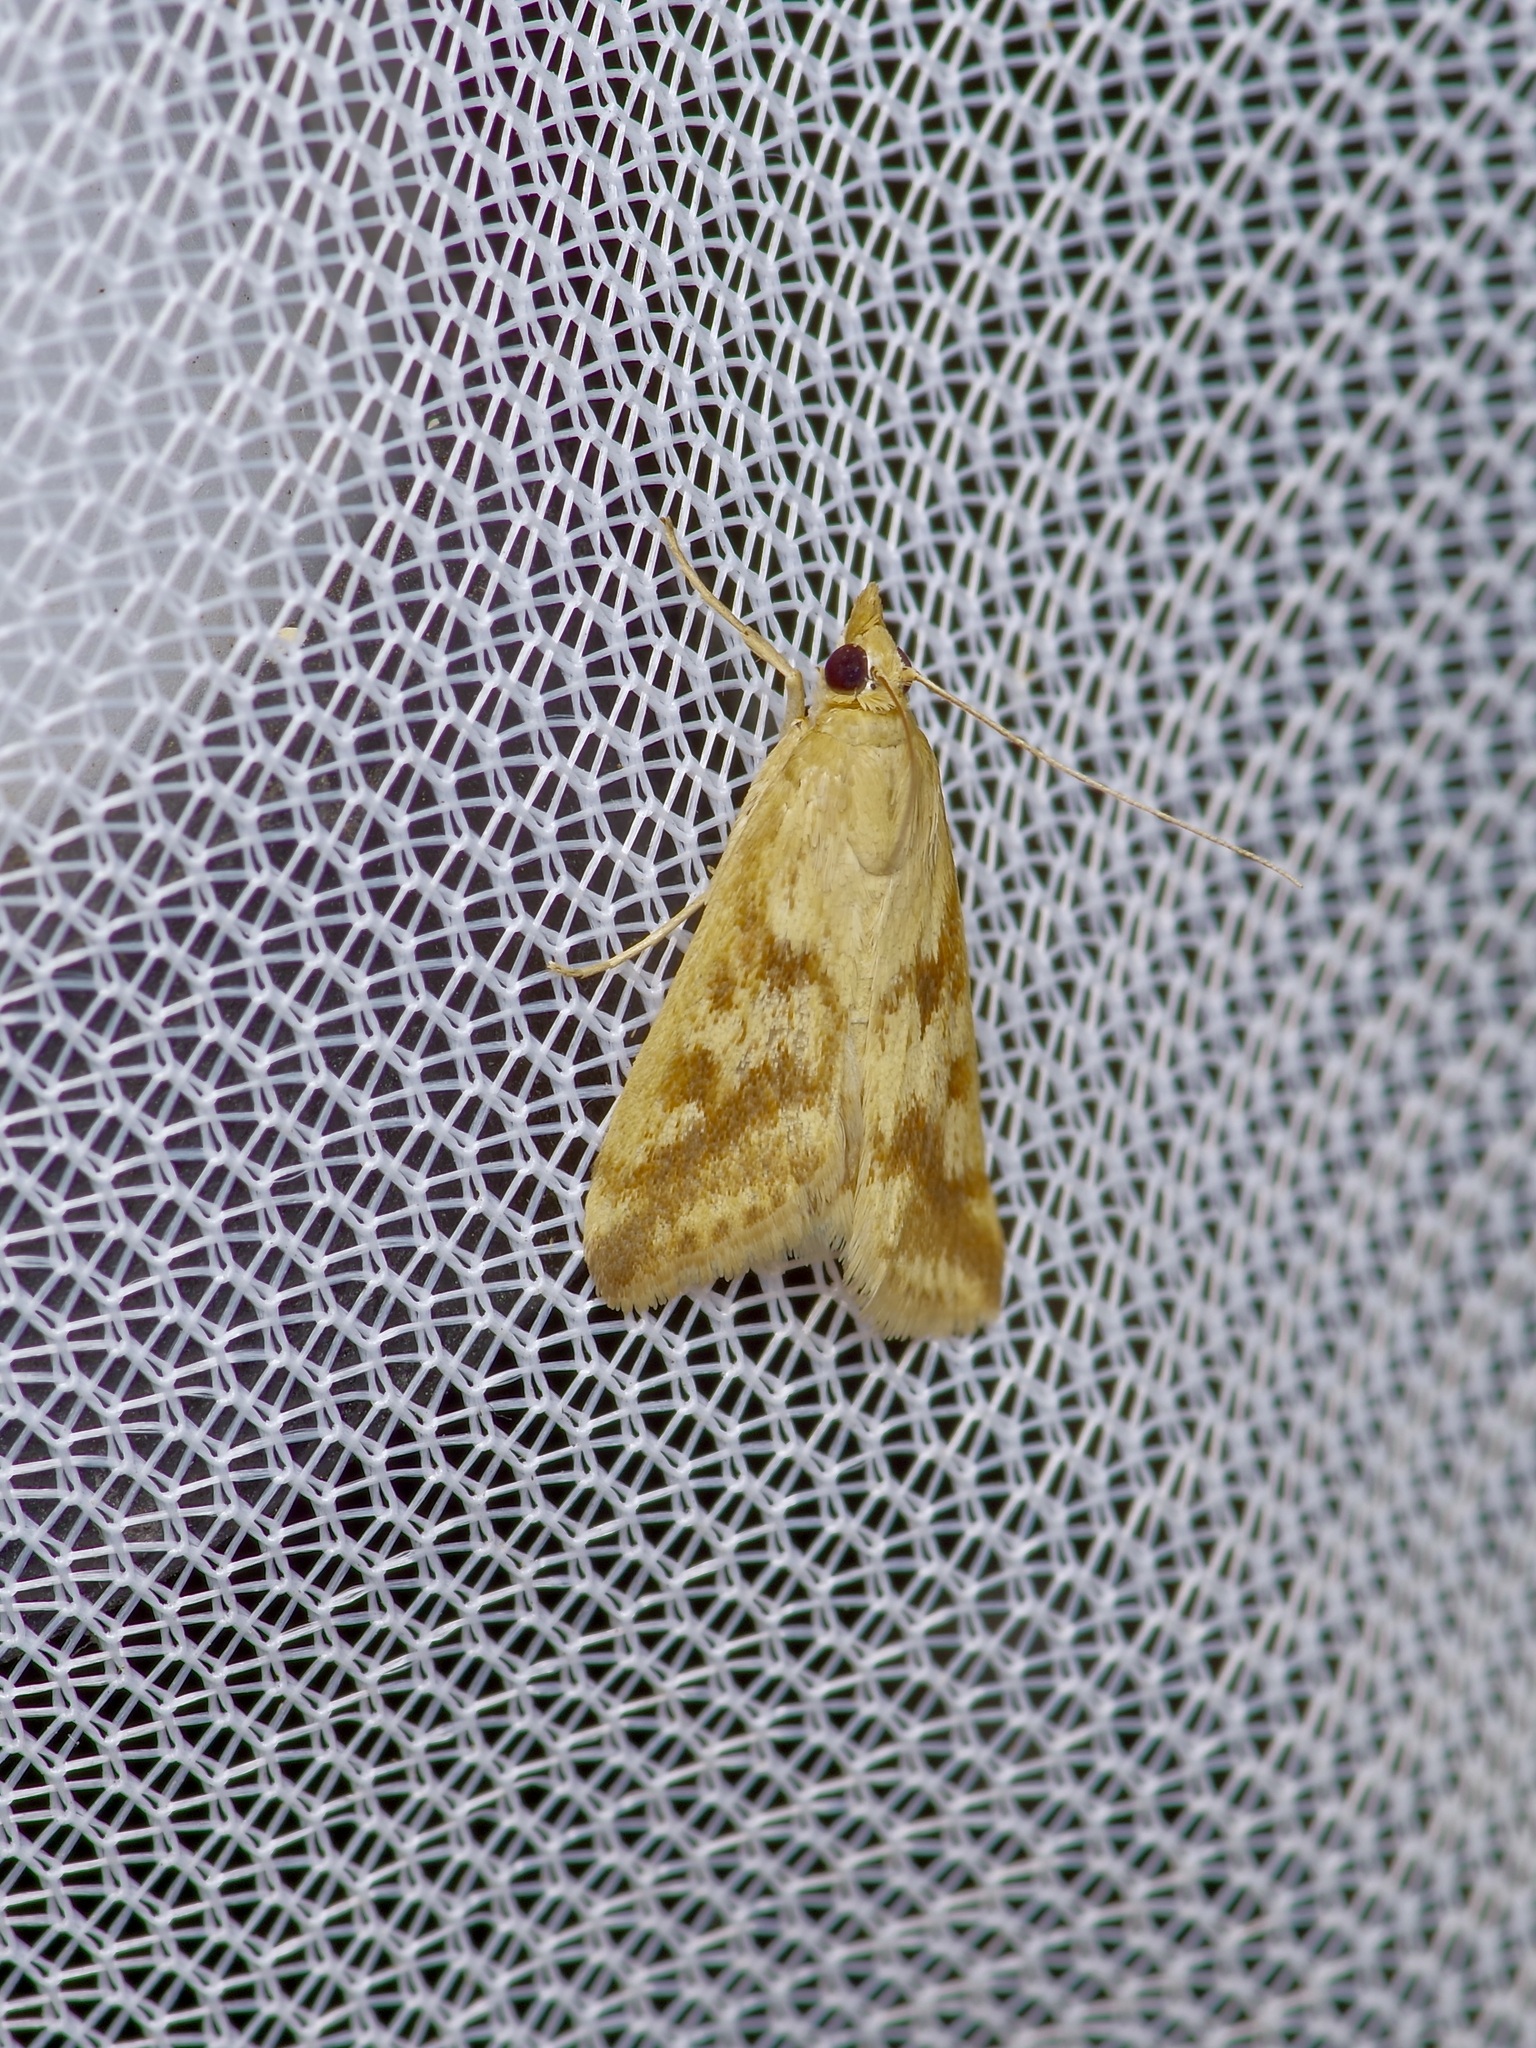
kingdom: Animalia
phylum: Arthropoda
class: Insecta
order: Lepidoptera
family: Crambidae
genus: Achyra
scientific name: Achyra bifidalis
